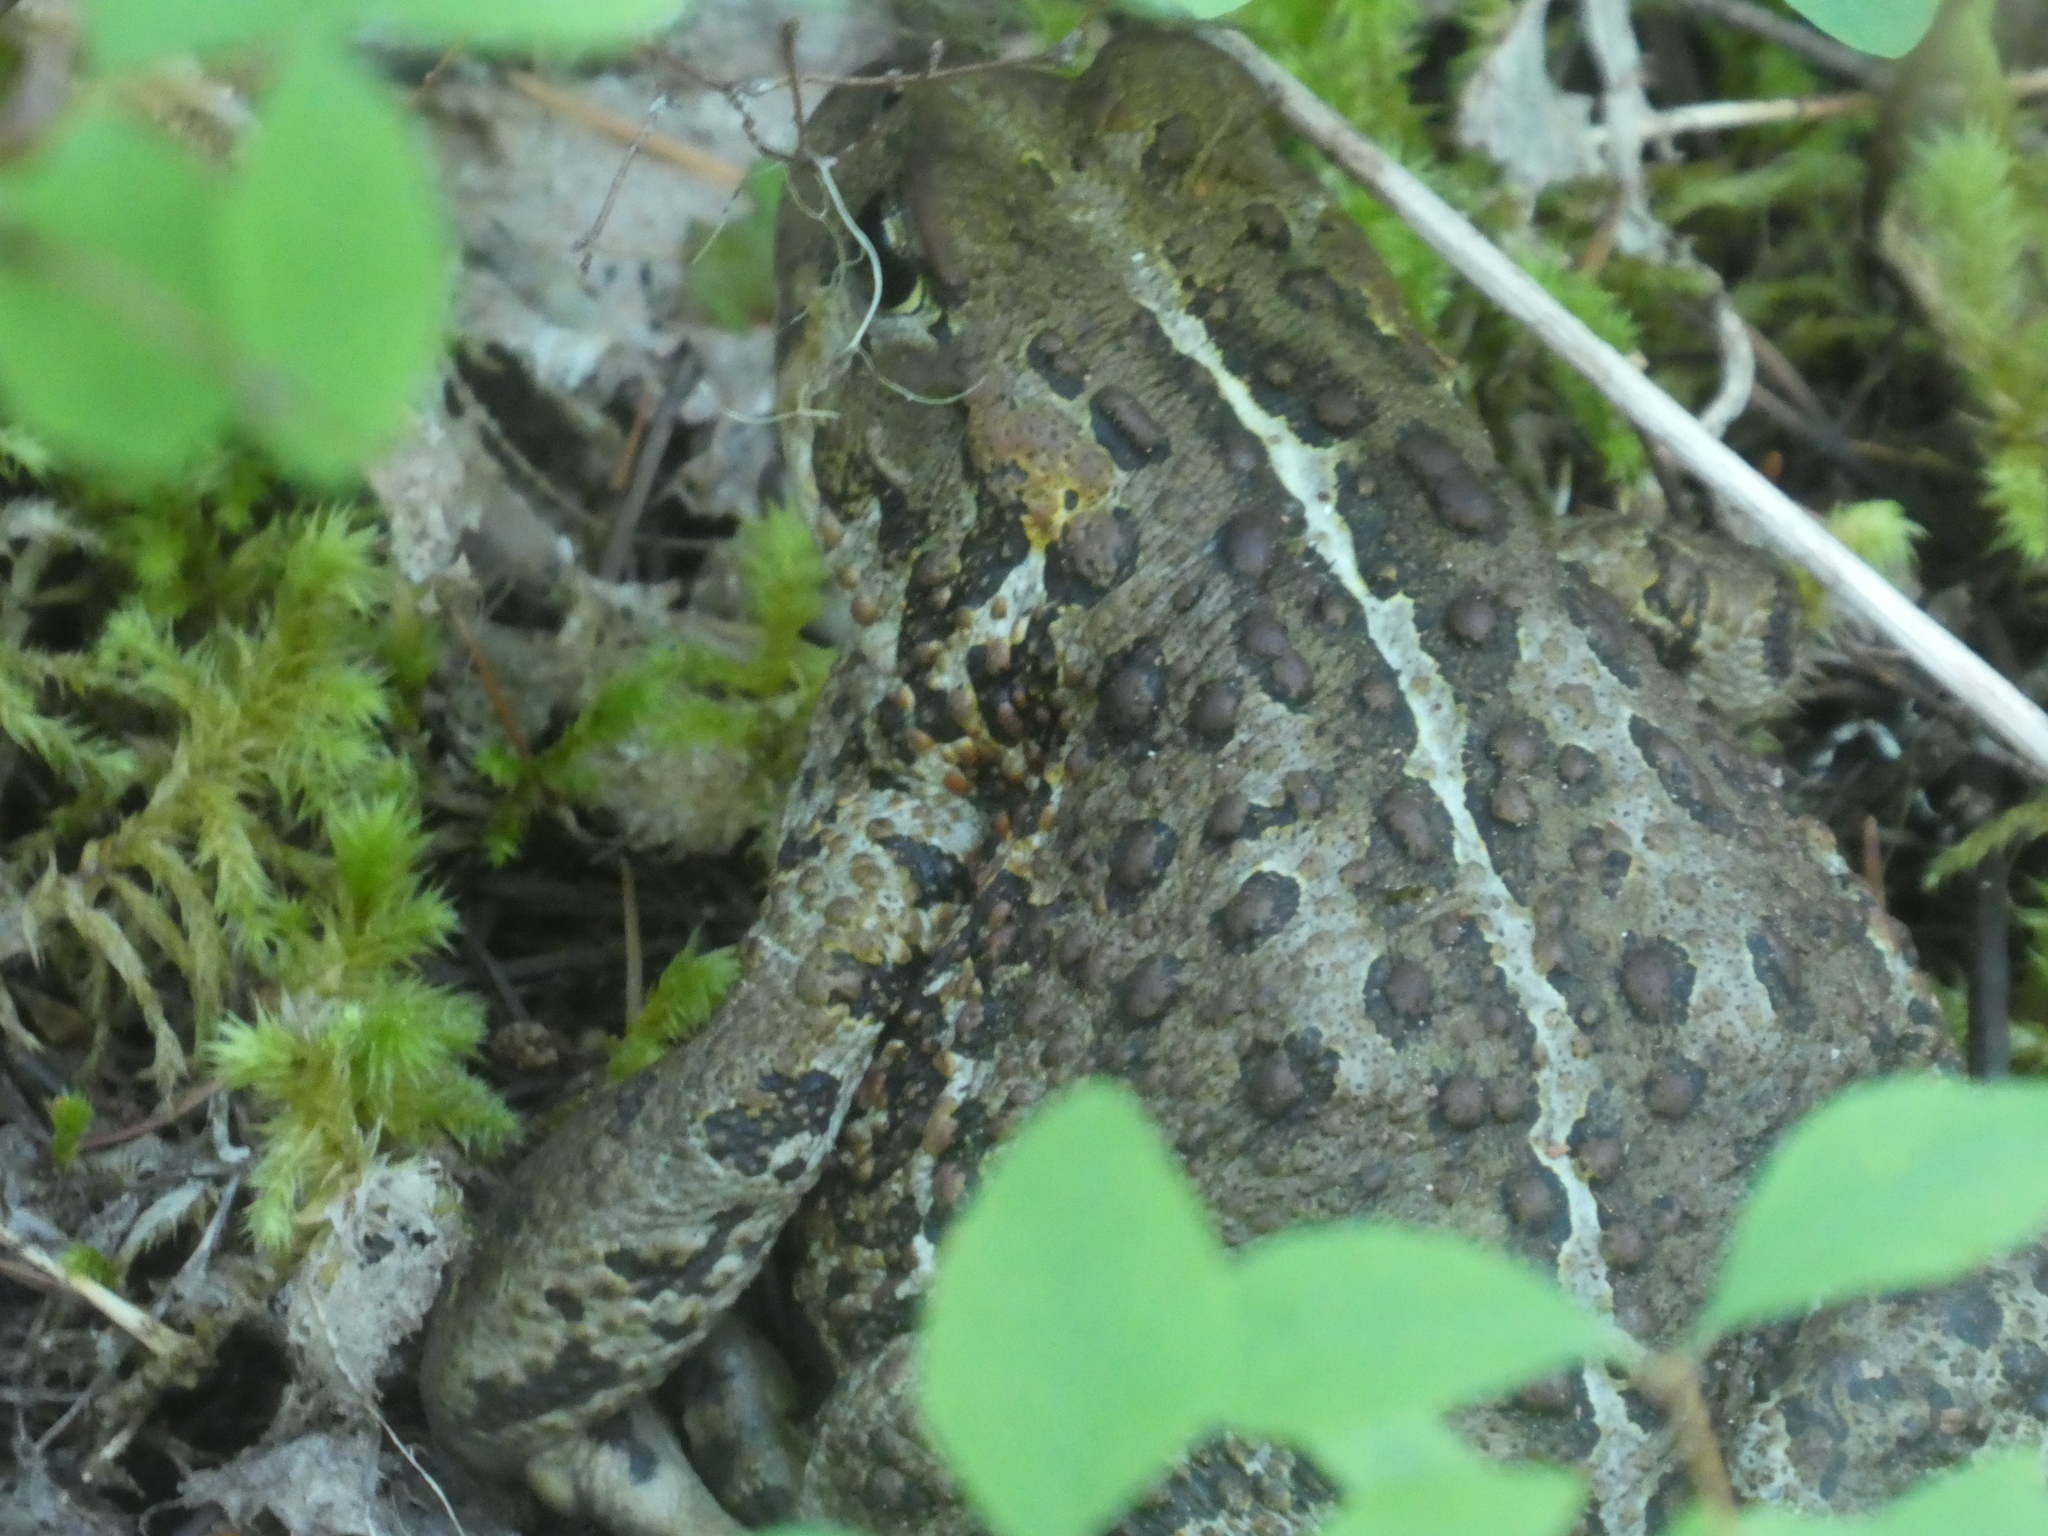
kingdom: Animalia
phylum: Chordata
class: Amphibia
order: Anura
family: Bufonidae
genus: Anaxyrus
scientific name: Anaxyrus boreas
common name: Western toad
